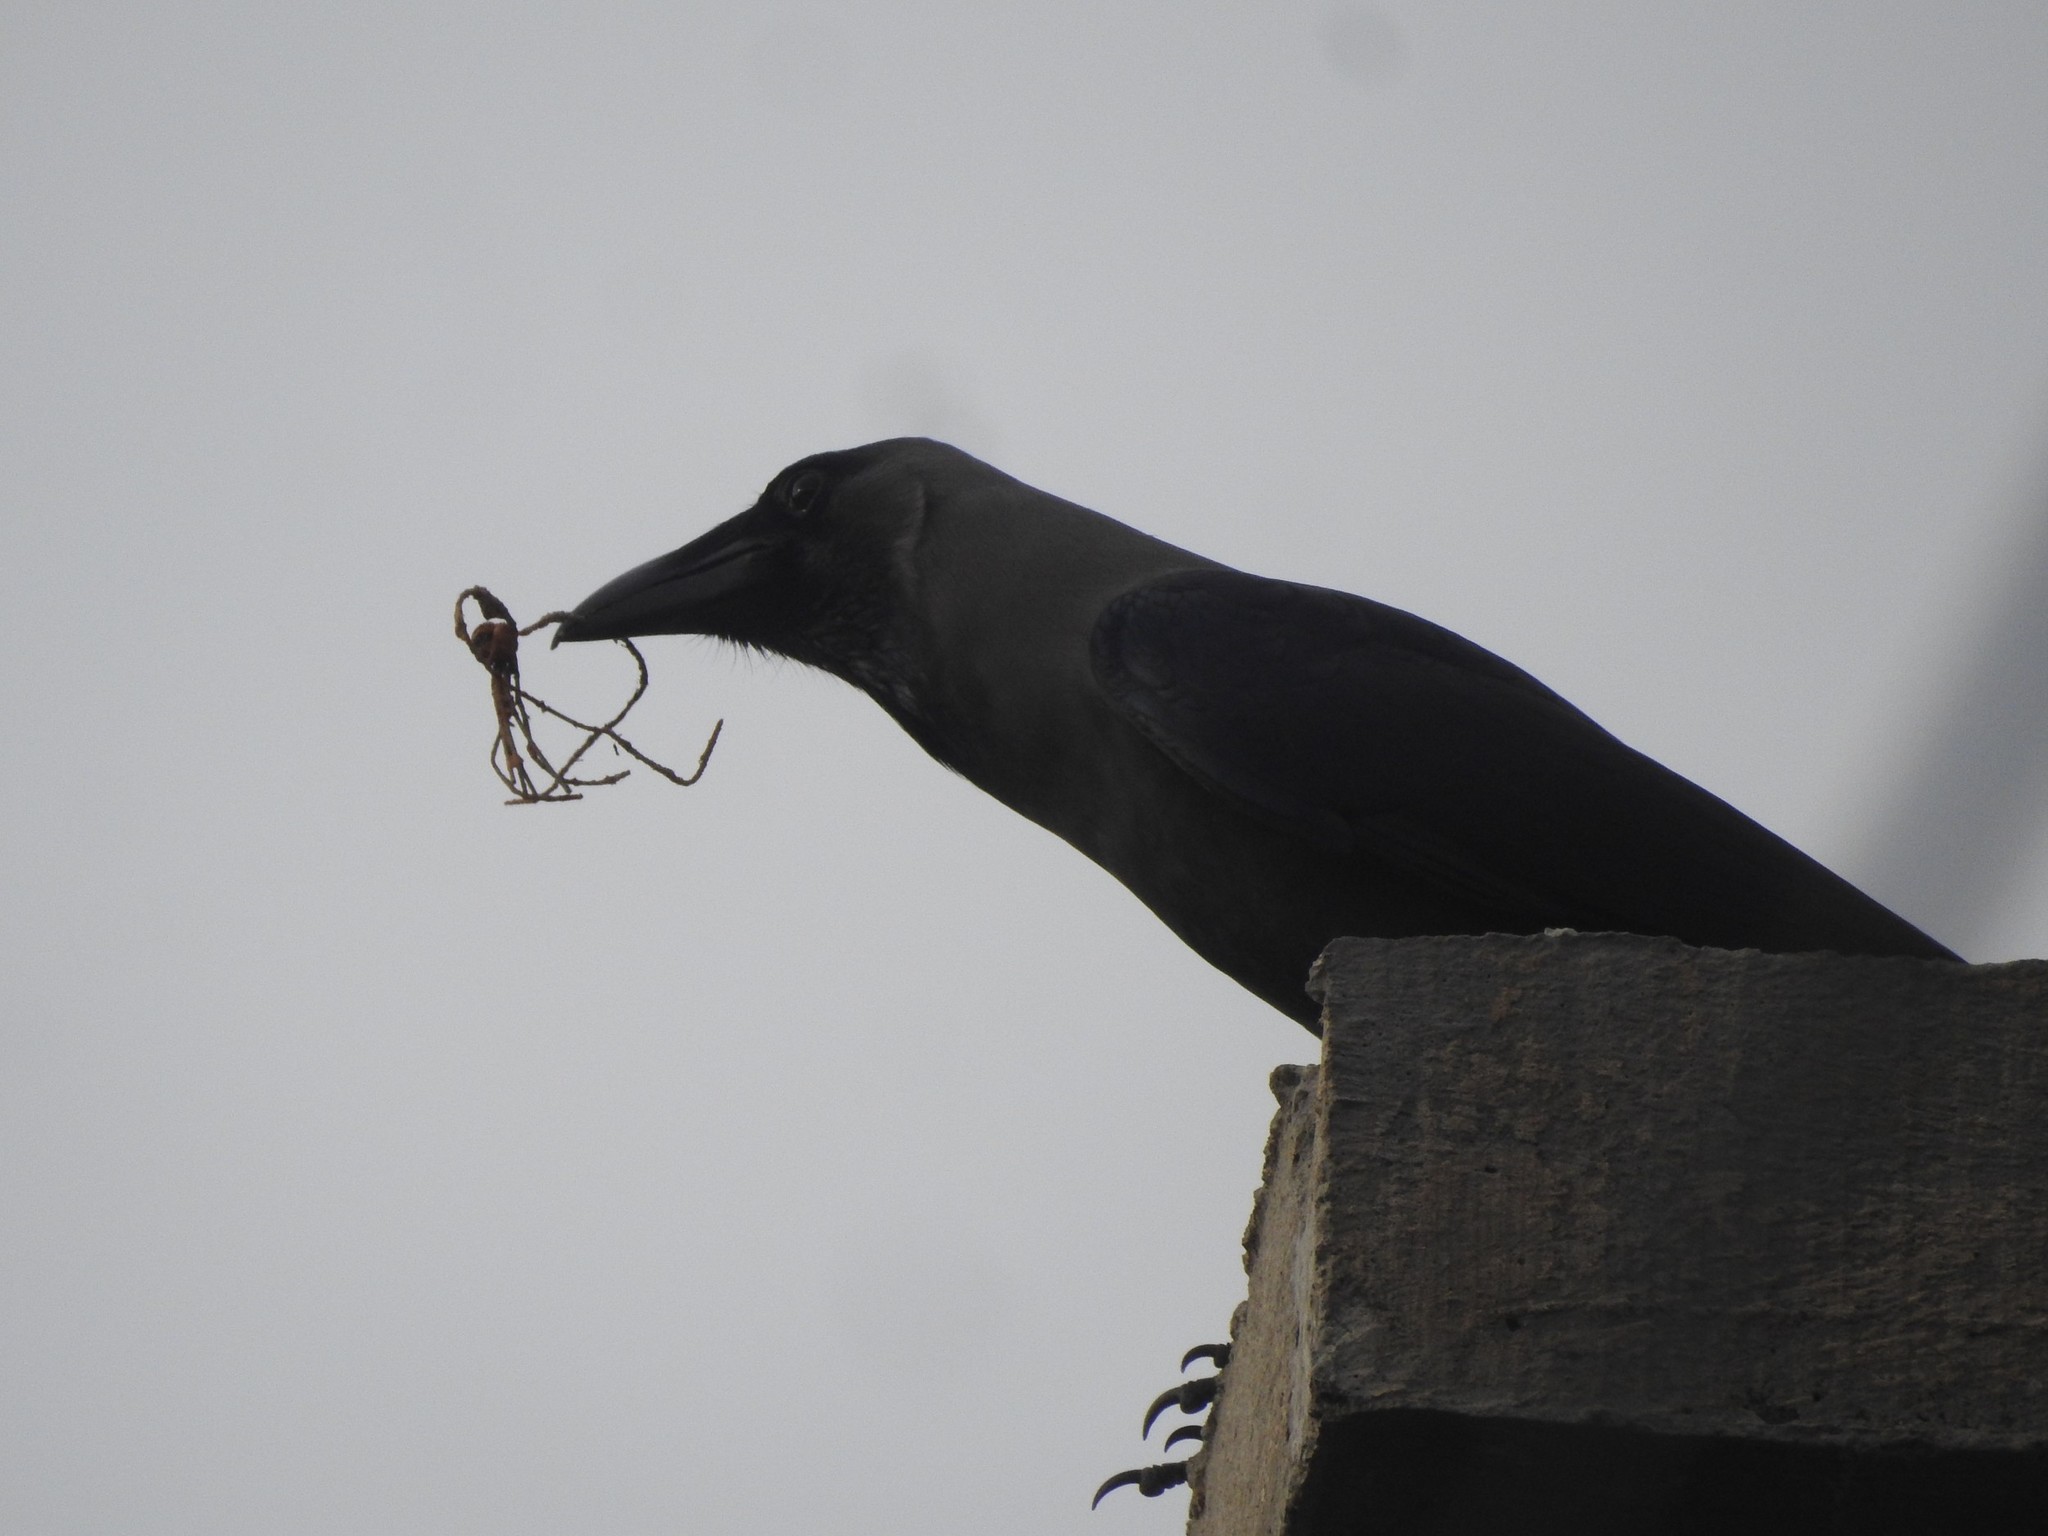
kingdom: Animalia
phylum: Chordata
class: Aves
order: Passeriformes
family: Corvidae
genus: Corvus
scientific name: Corvus splendens
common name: House crow
